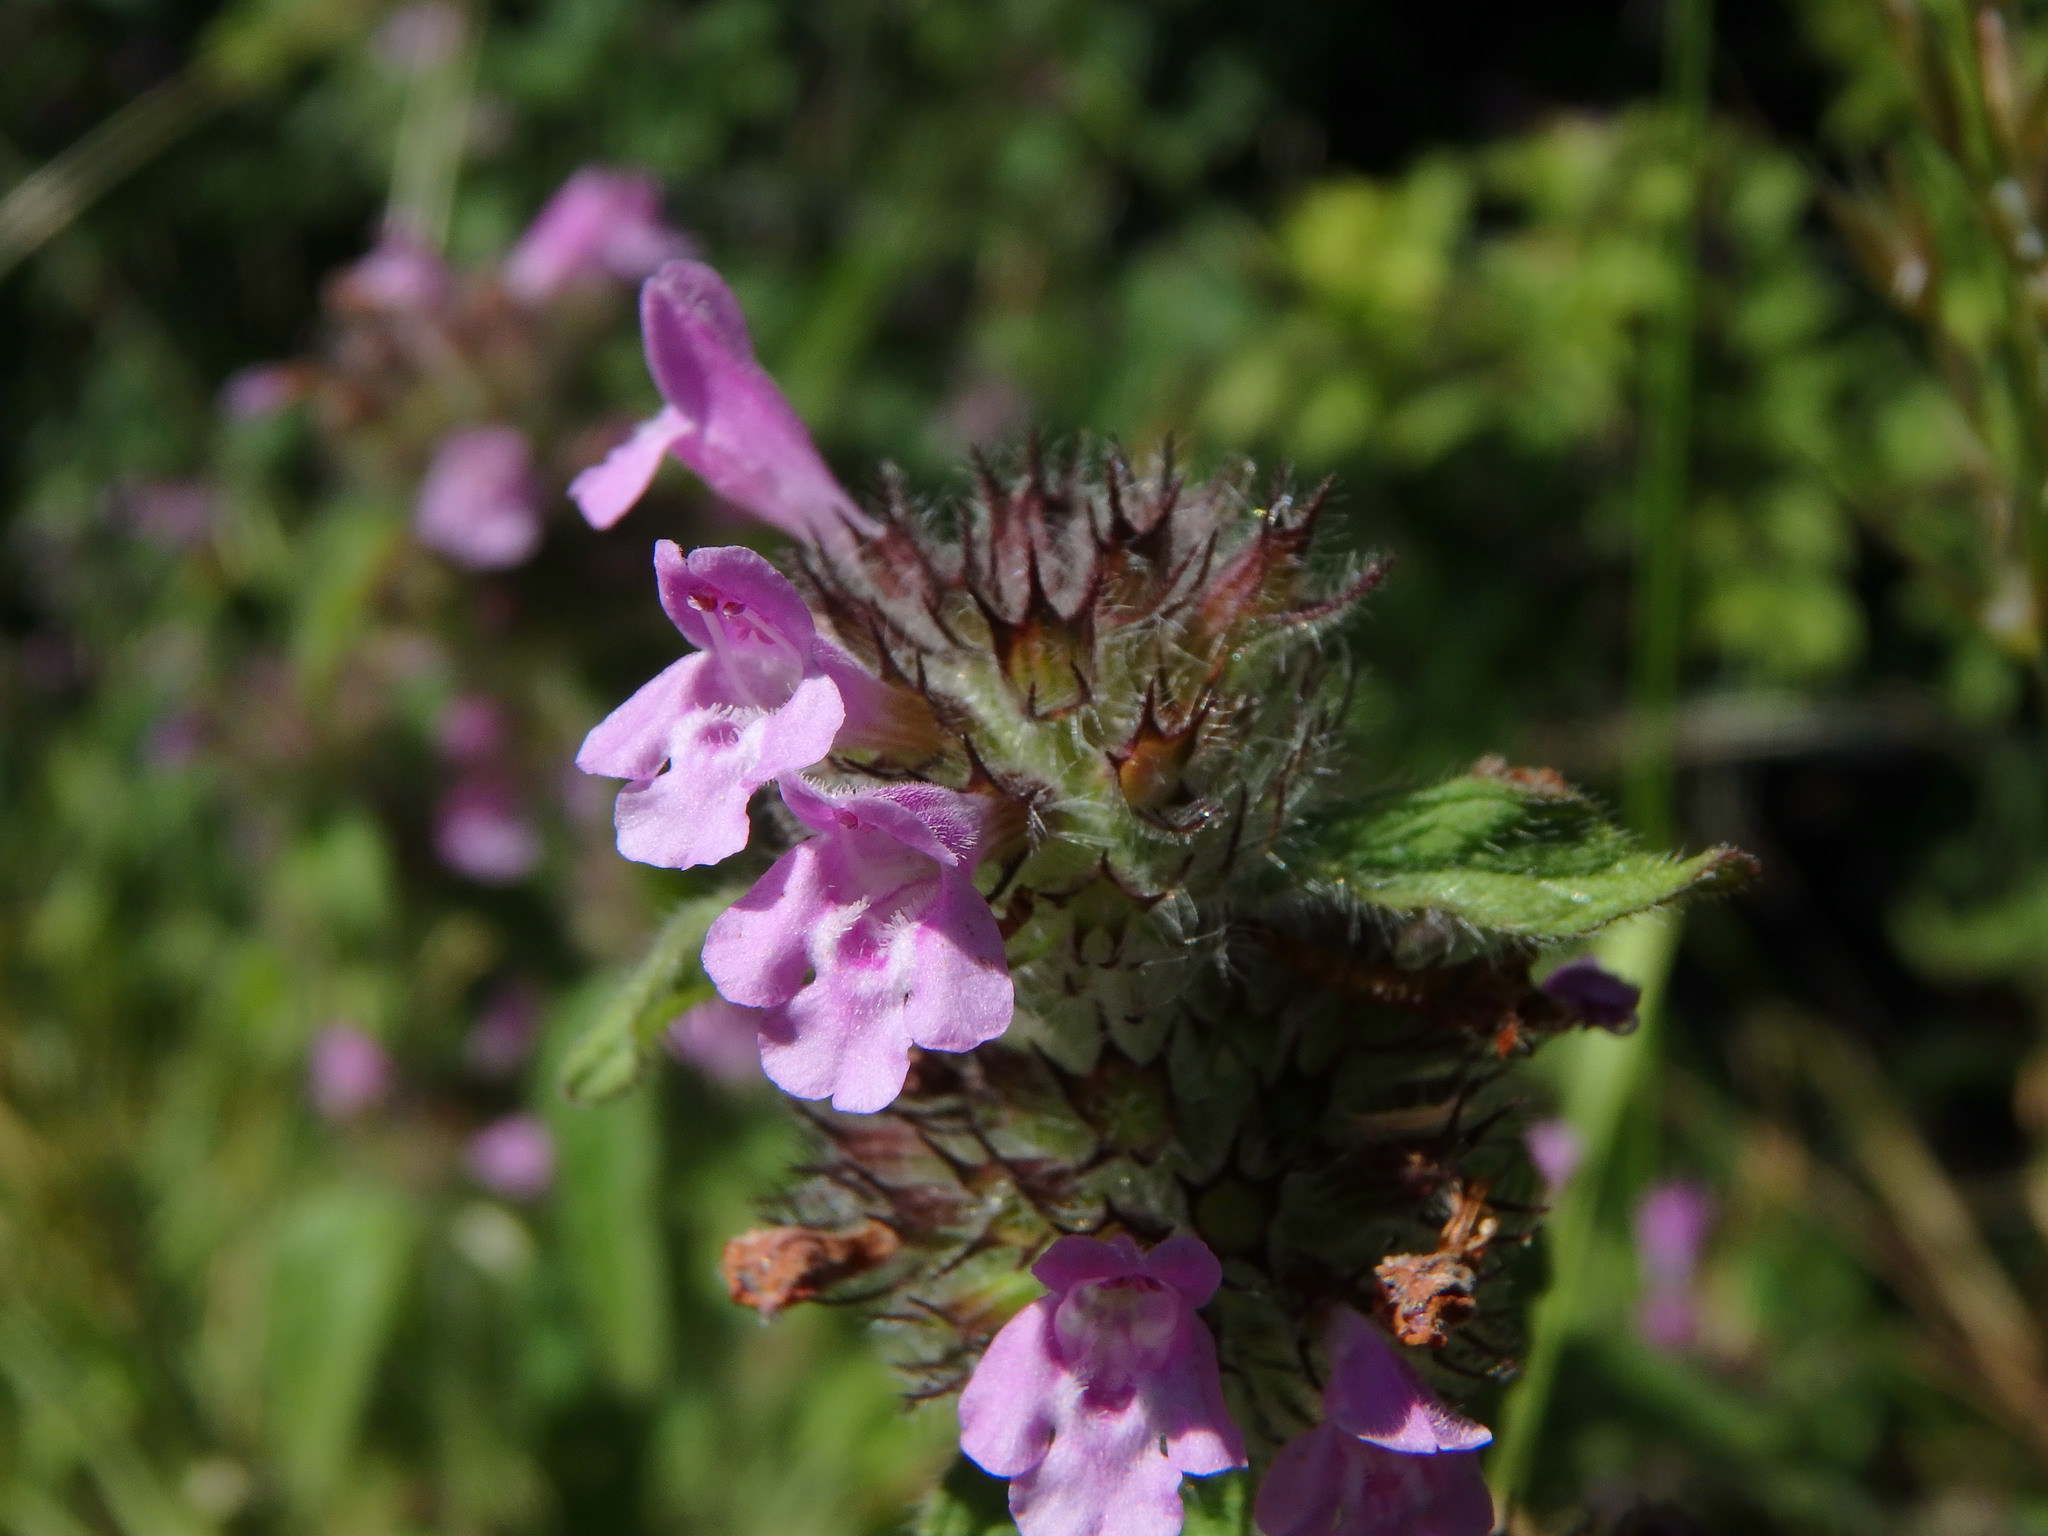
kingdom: Plantae
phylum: Tracheophyta
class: Magnoliopsida
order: Lamiales
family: Lamiaceae
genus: Clinopodium
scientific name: Clinopodium vulgare
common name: Wild basil
